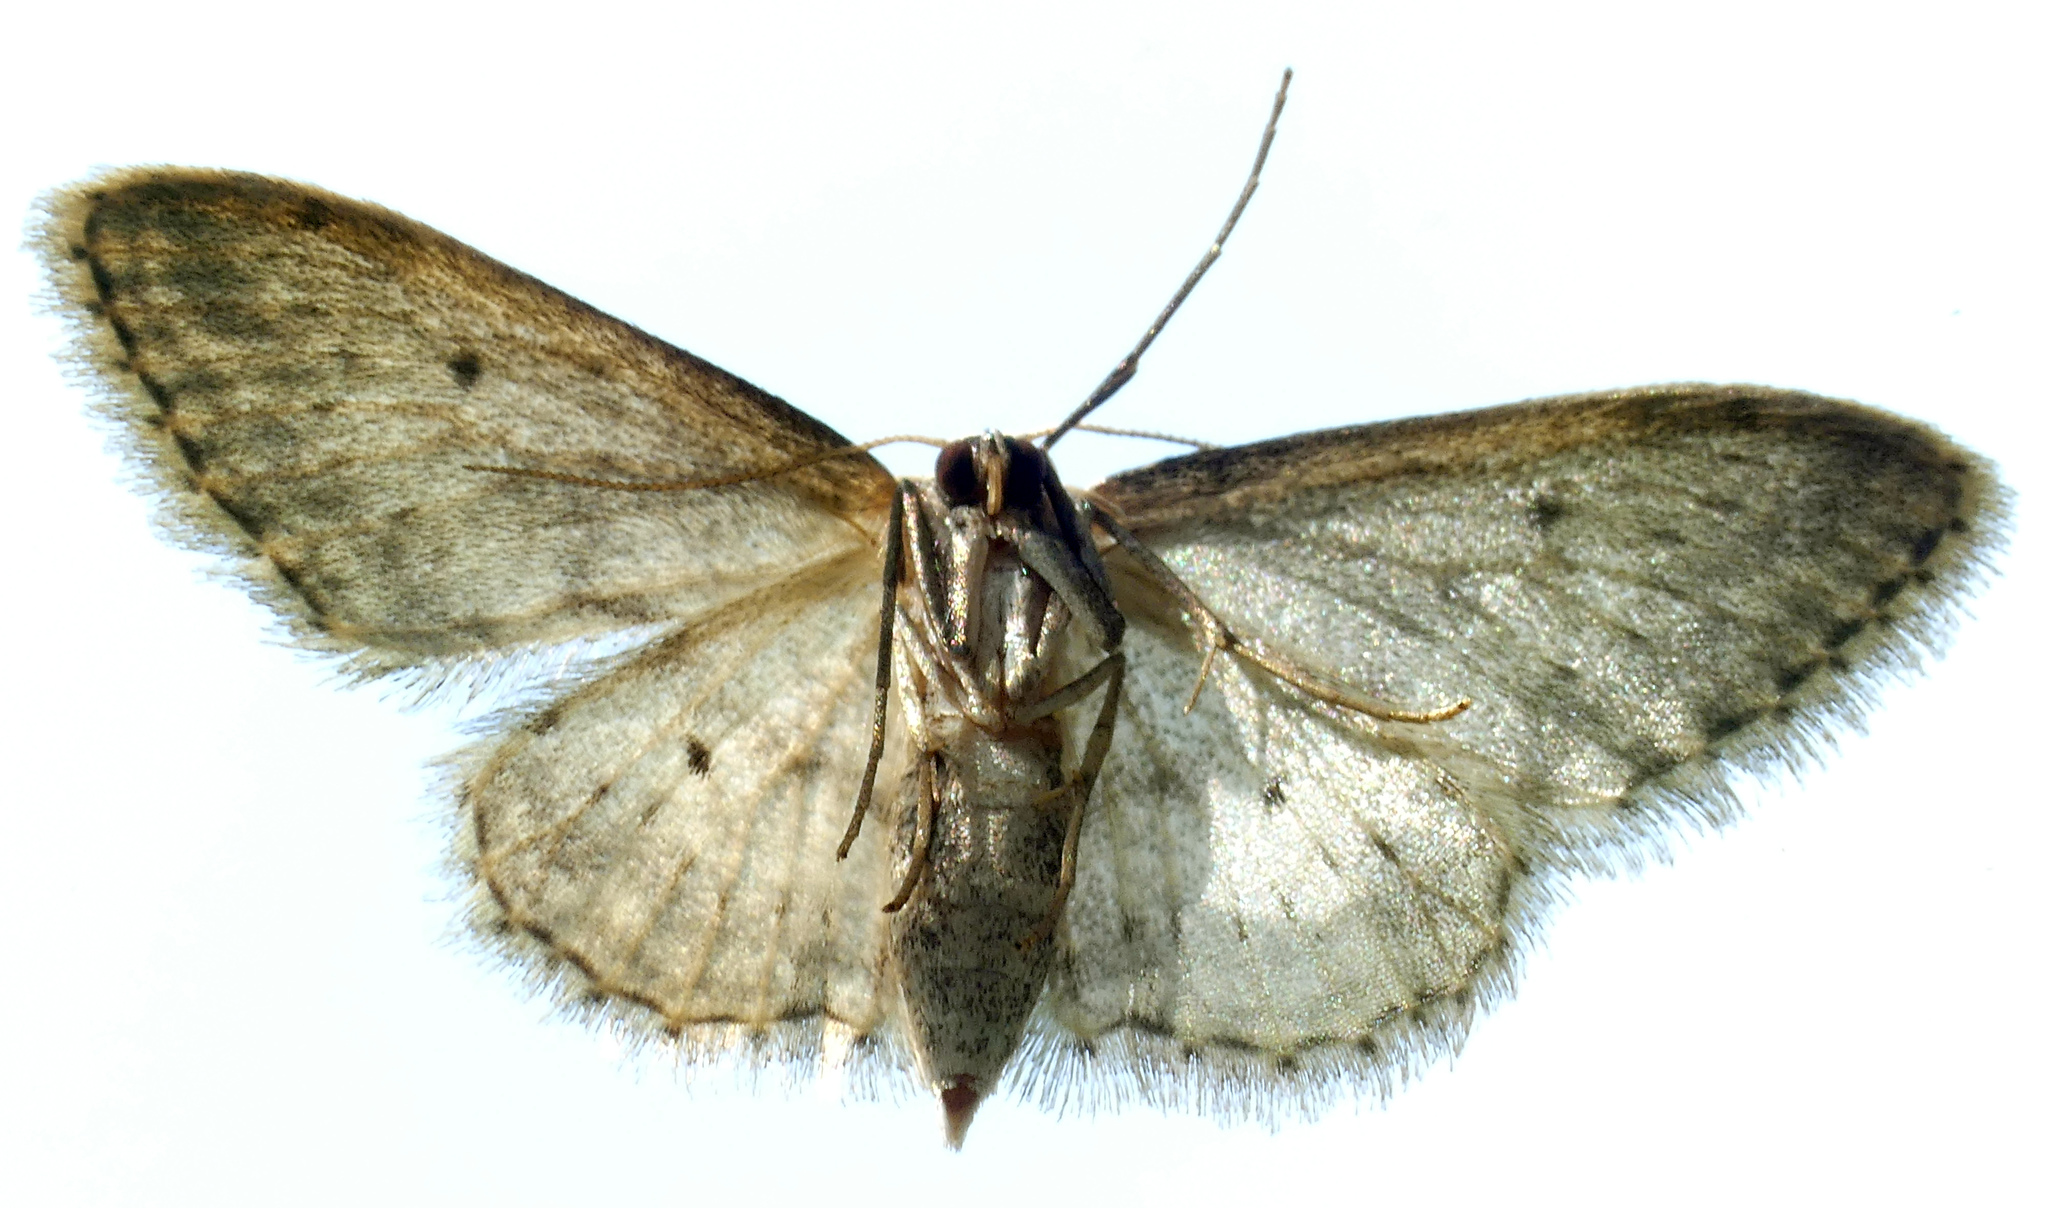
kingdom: Animalia
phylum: Arthropoda
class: Insecta
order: Lepidoptera
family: Geometridae
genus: Idaea
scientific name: Idaea seriata
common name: Small dusty wave
